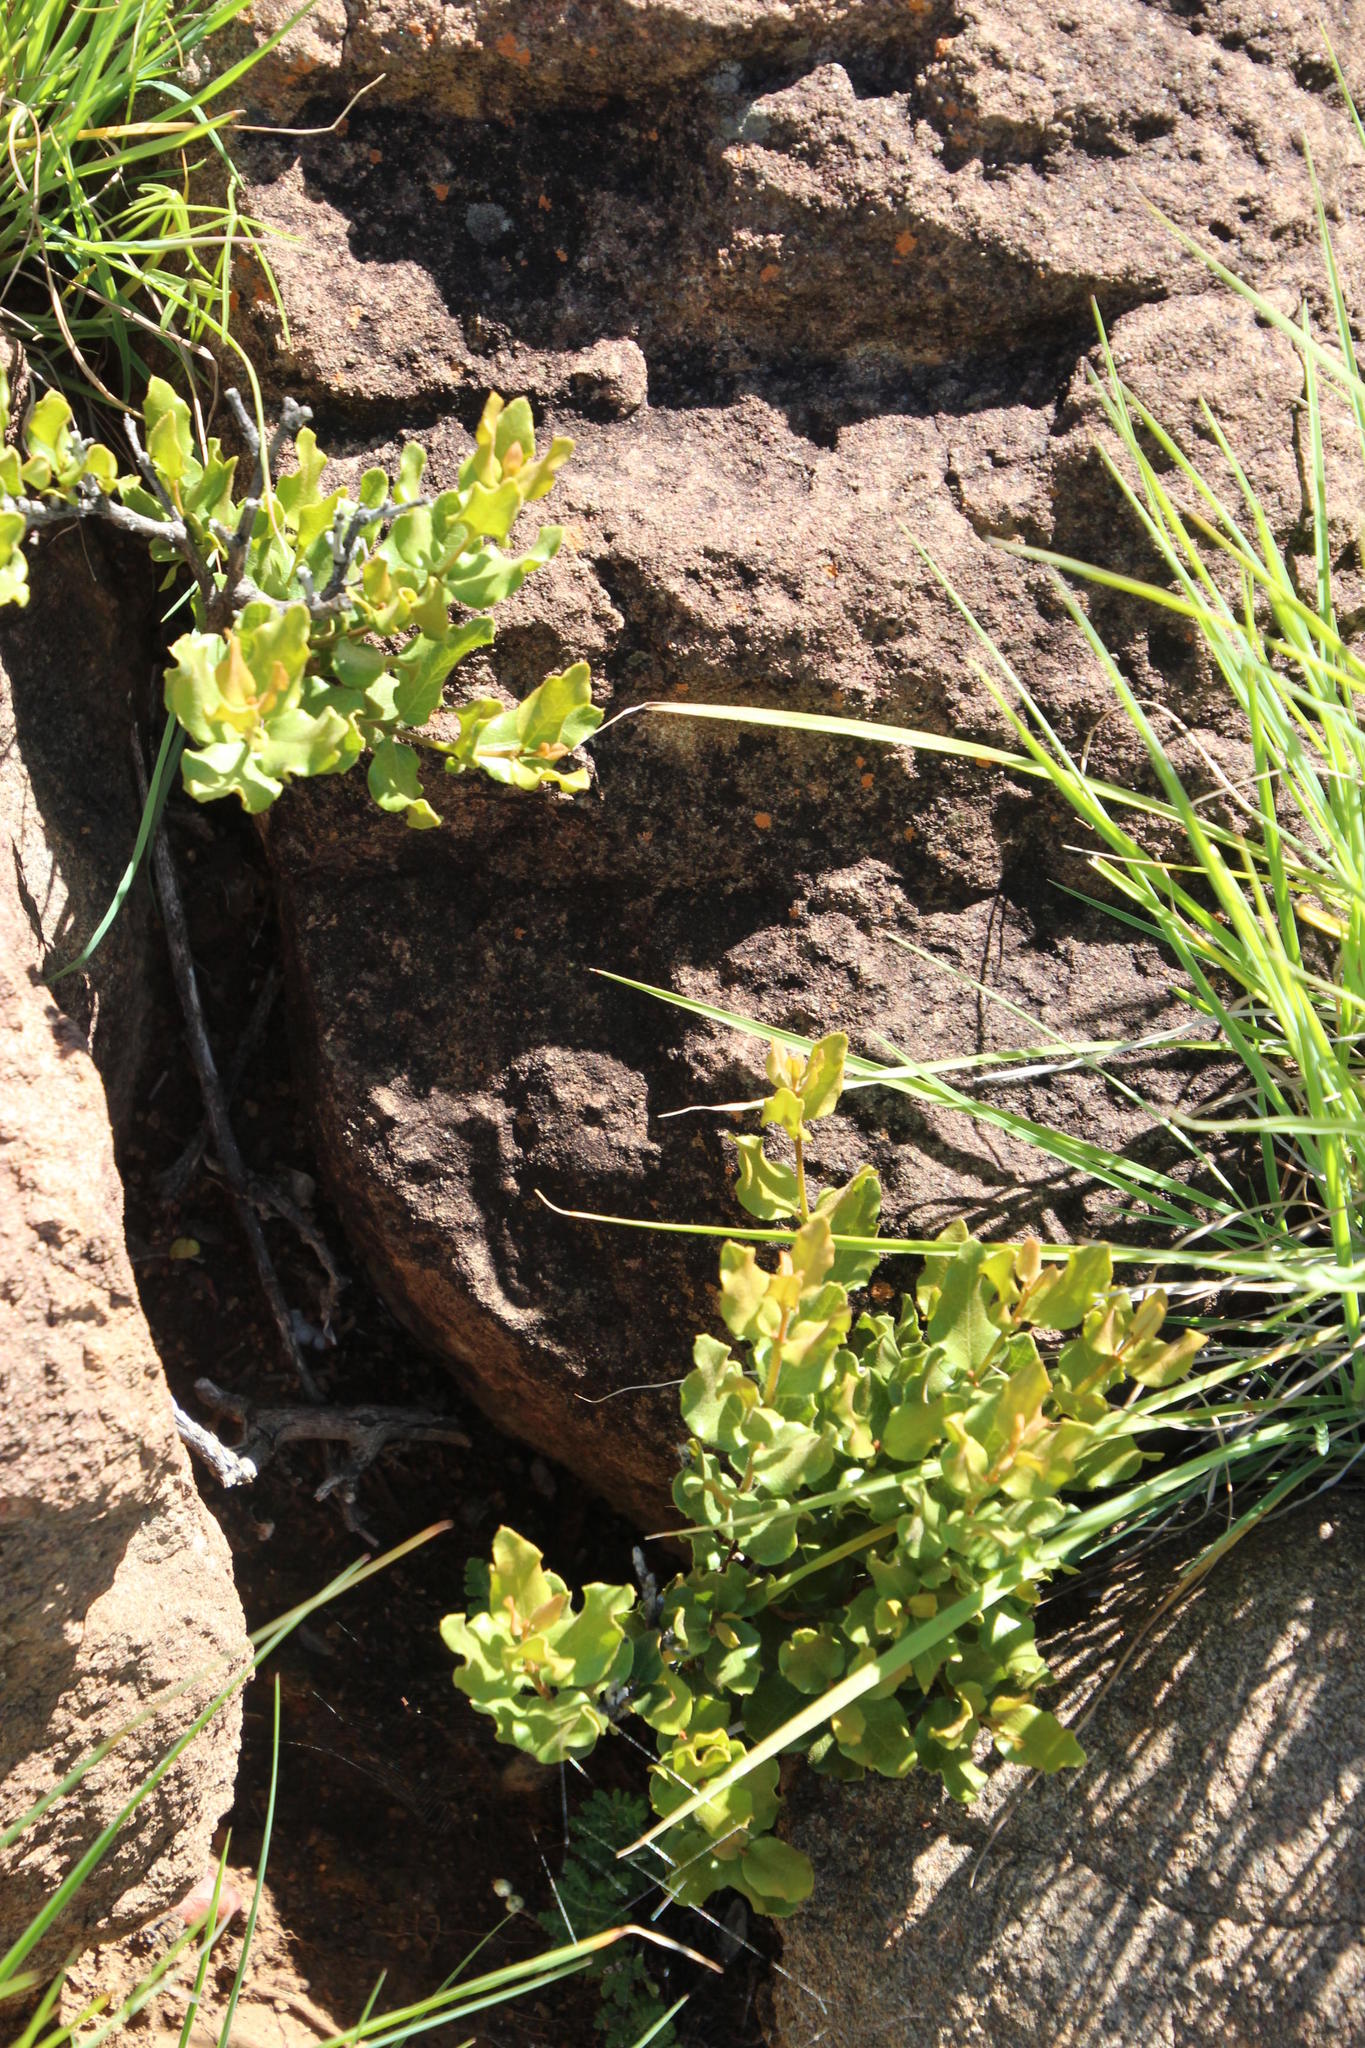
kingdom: Plantae
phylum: Tracheophyta
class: Magnoliopsida
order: Ericales
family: Ebenaceae
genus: Euclea
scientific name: Euclea crispa
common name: Blue guarri
